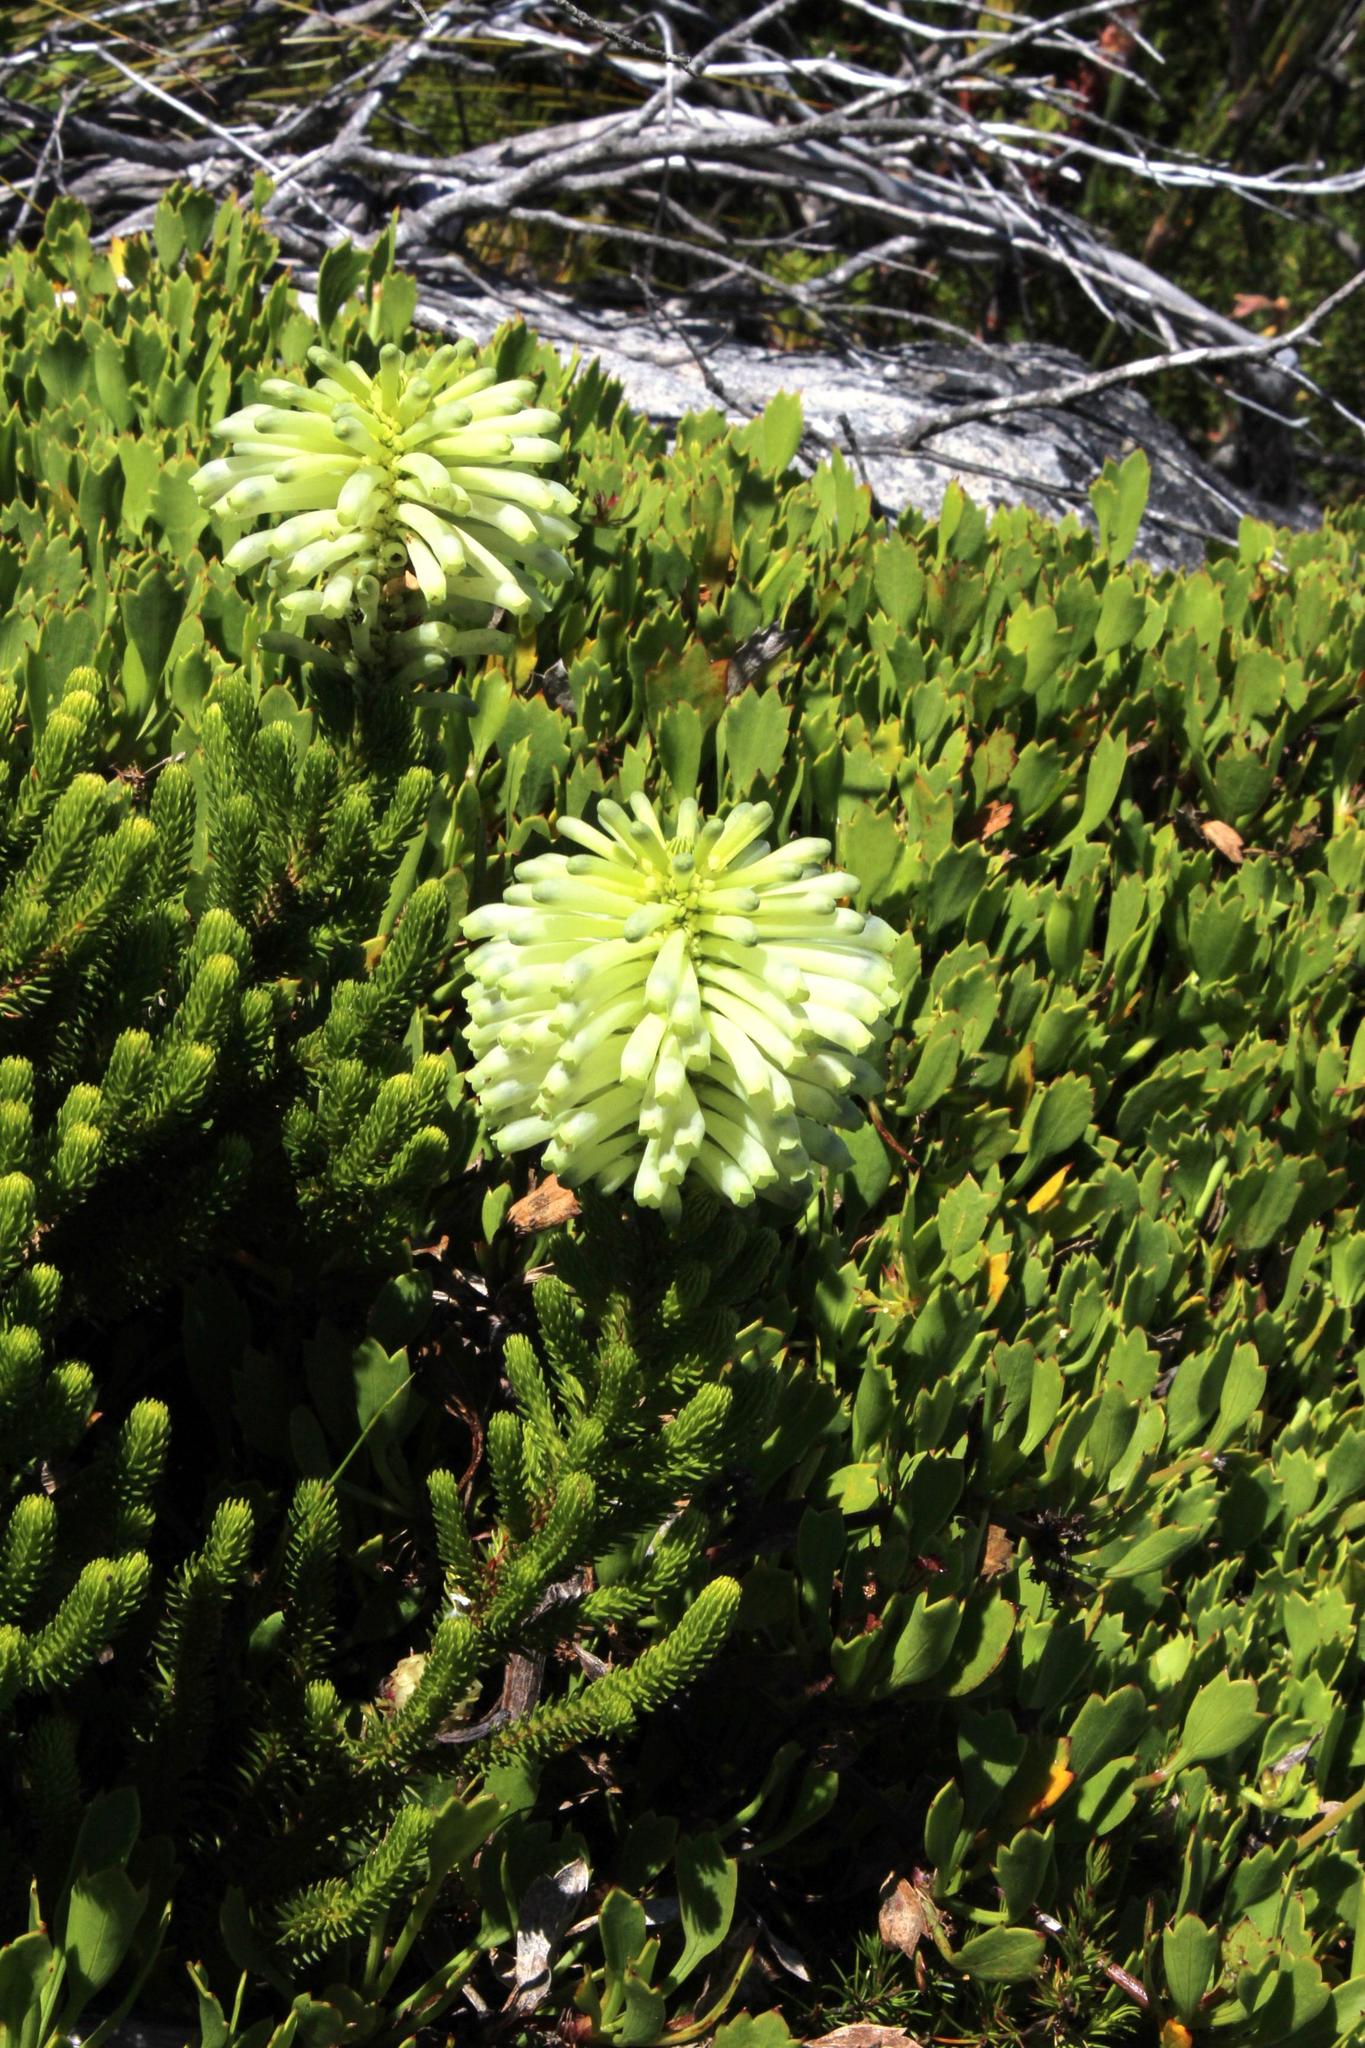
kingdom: Plantae
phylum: Tracheophyta
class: Magnoliopsida
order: Ericales
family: Ericaceae
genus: Erica
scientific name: Erica sessiliflora
